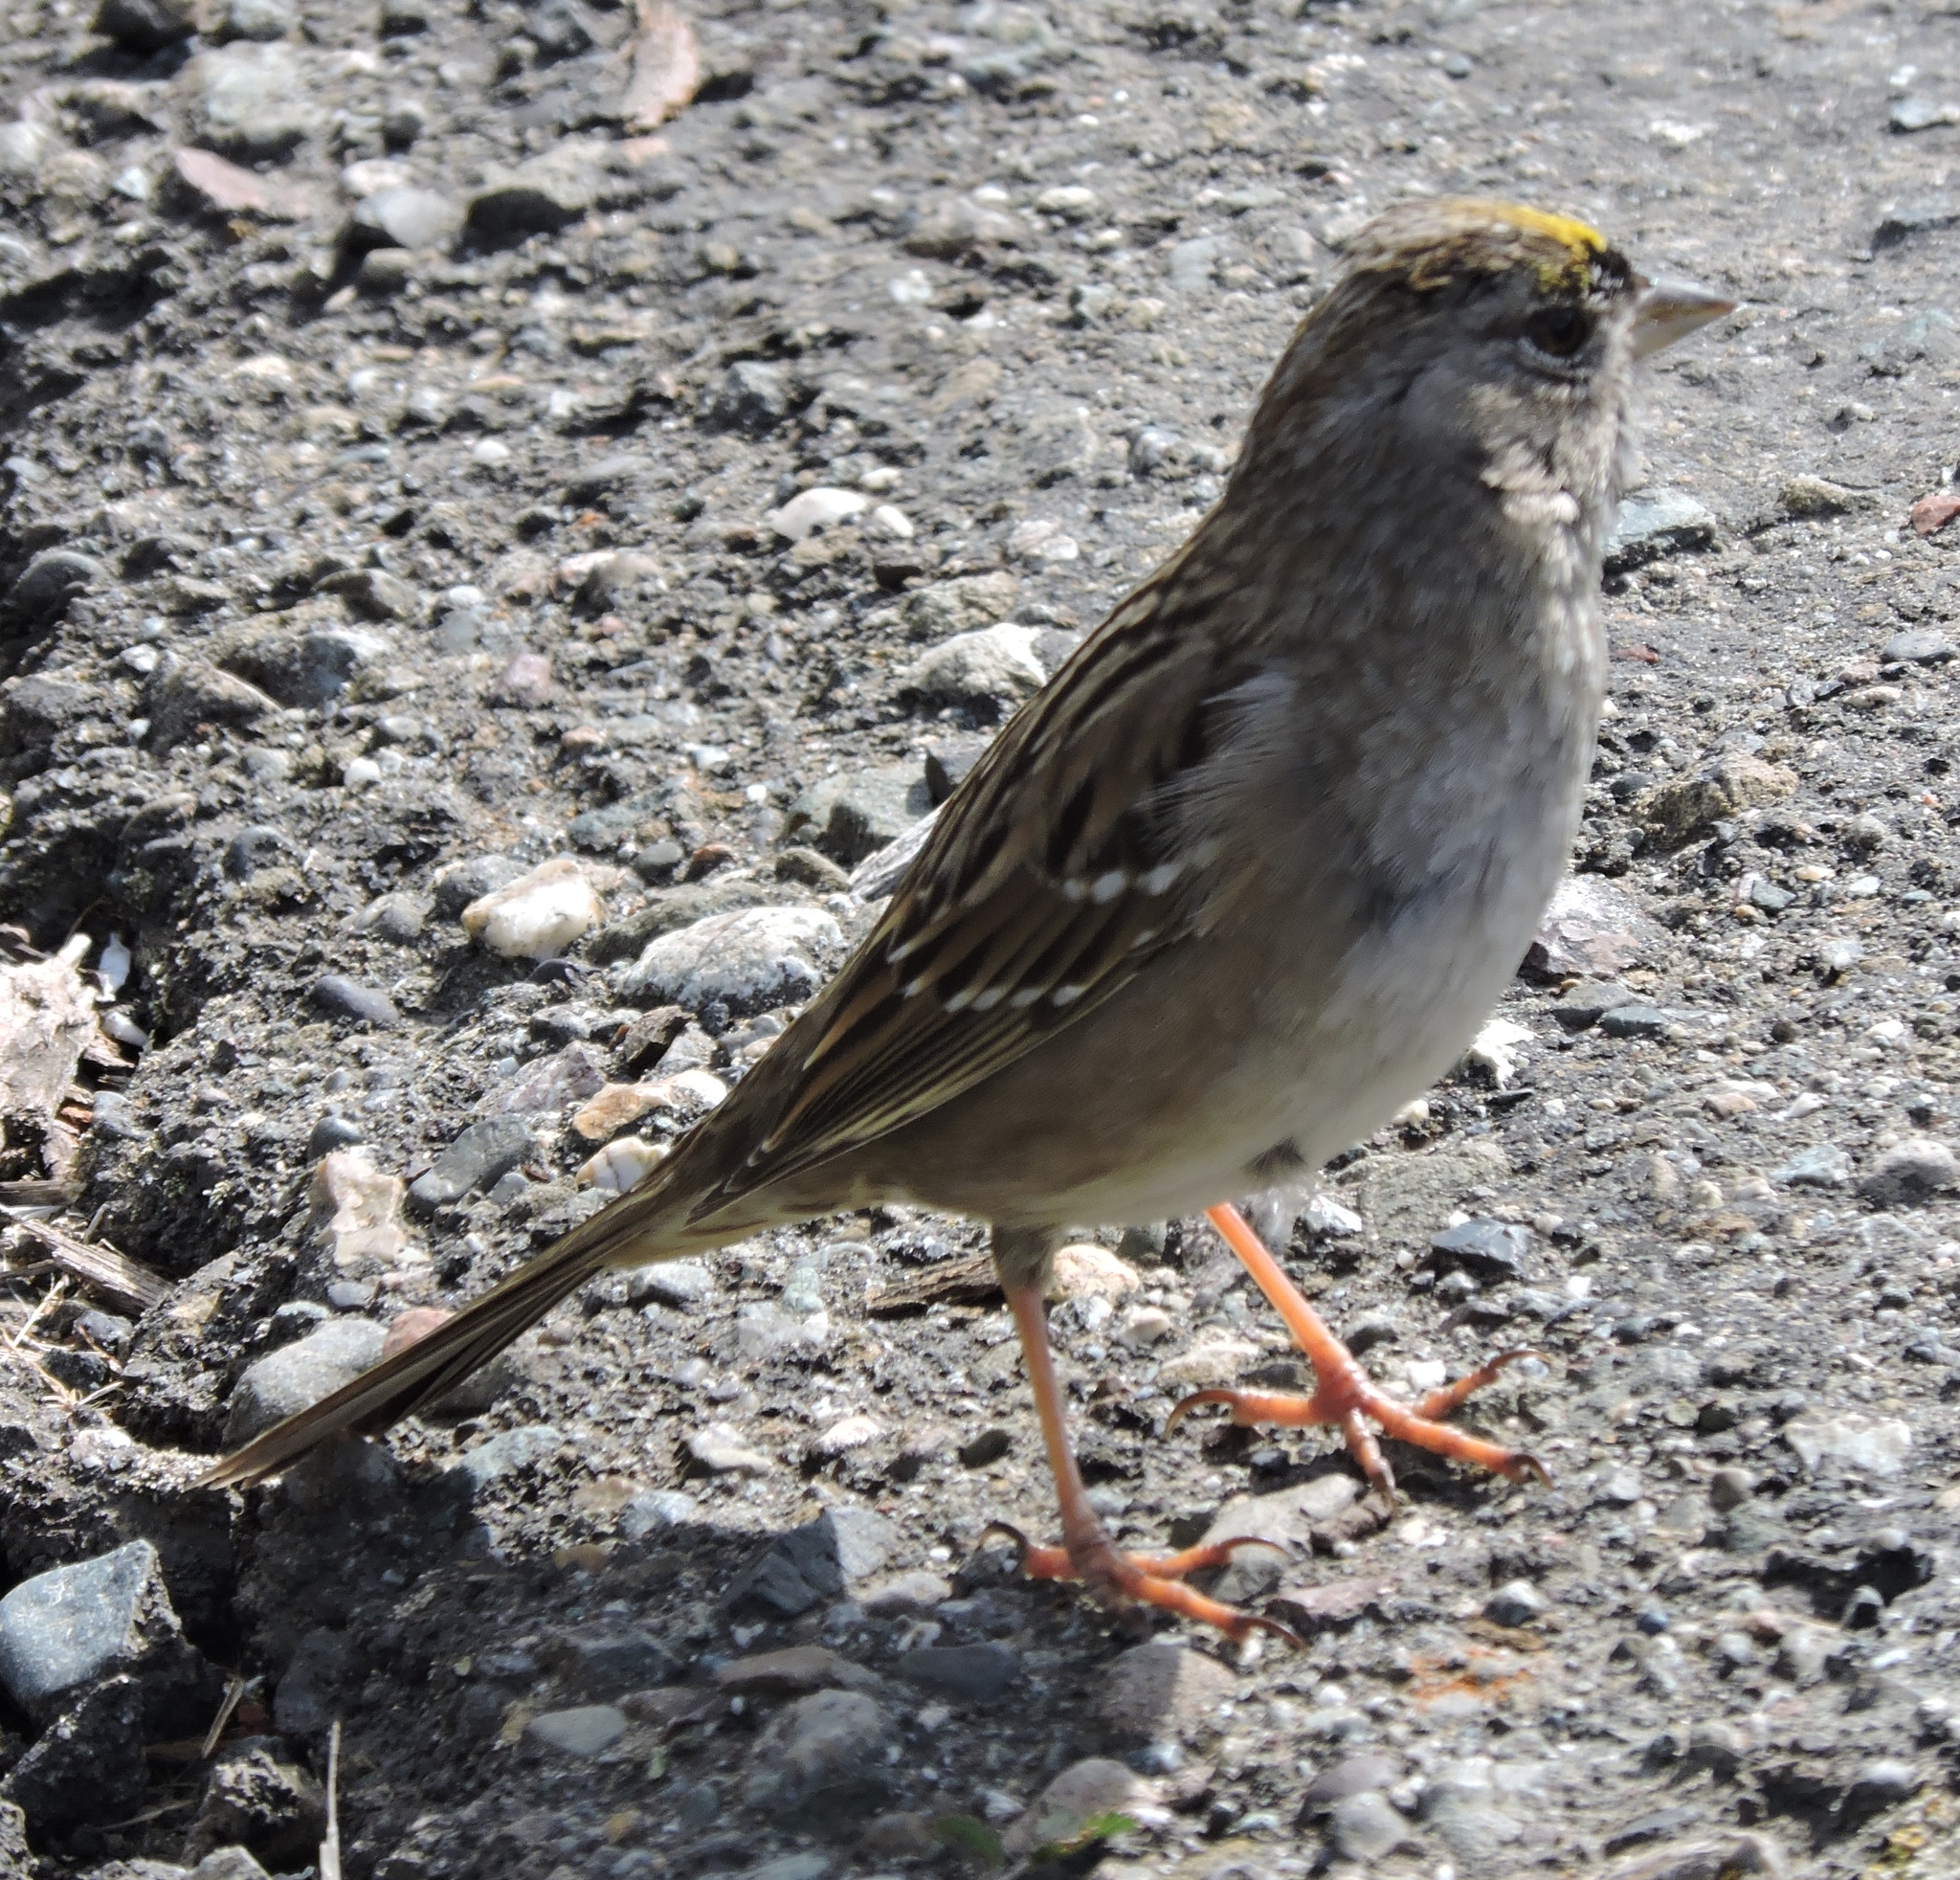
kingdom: Animalia
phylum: Chordata
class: Aves
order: Passeriformes
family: Passerellidae
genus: Zonotrichia
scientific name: Zonotrichia atricapilla
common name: Golden-crowned sparrow
